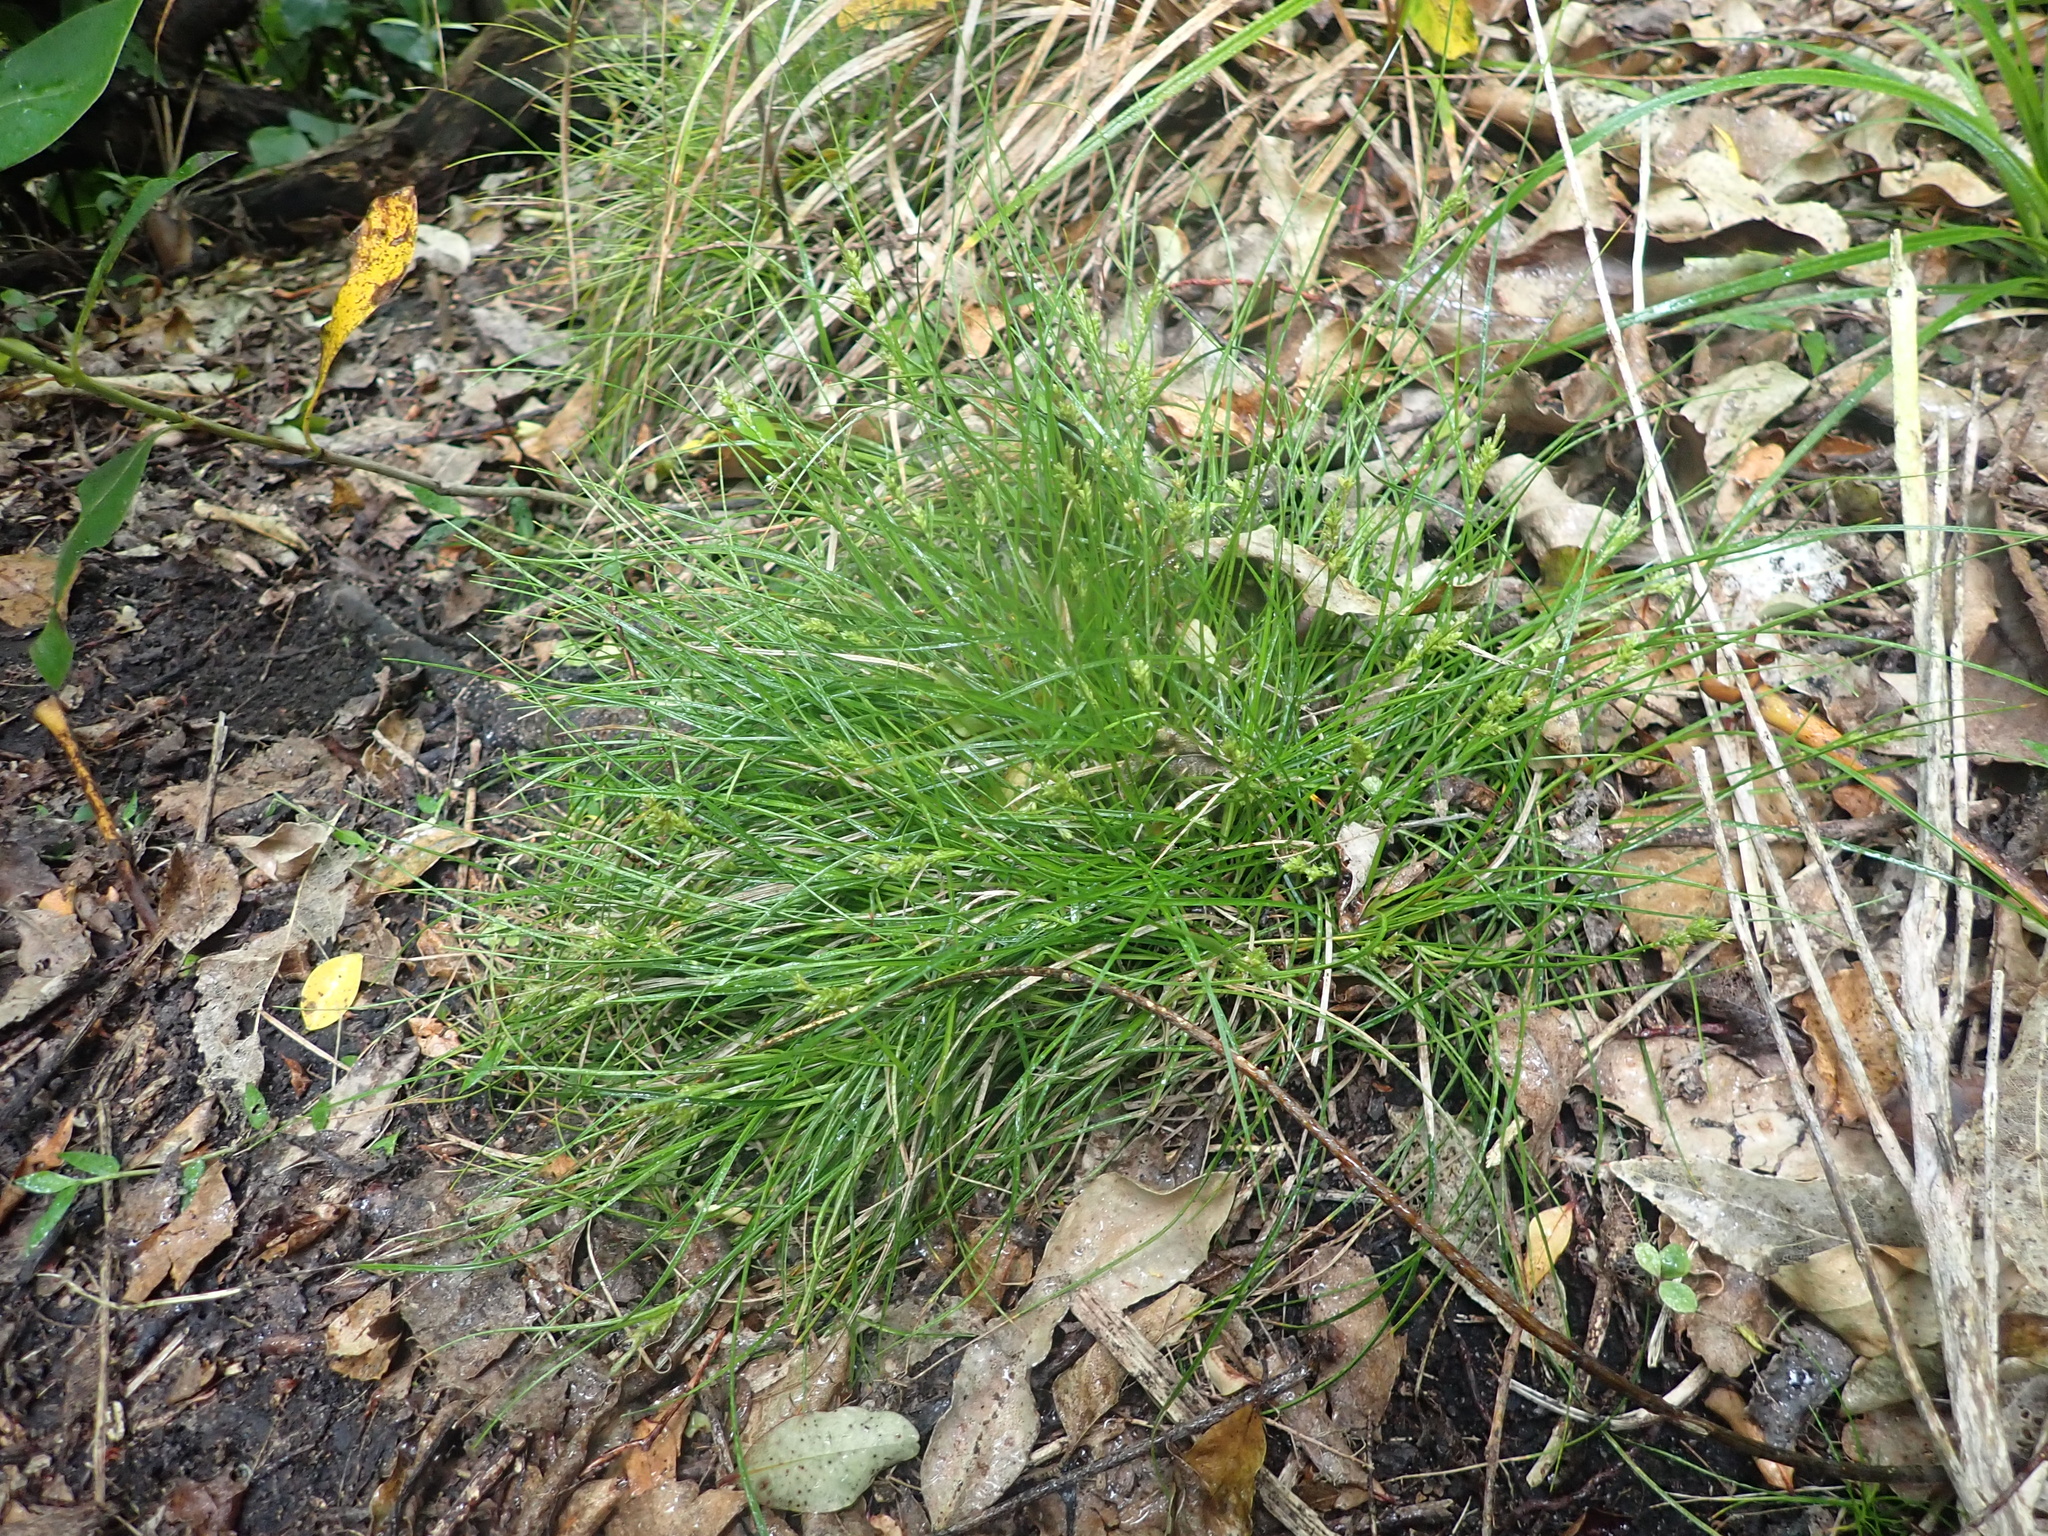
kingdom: Plantae
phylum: Tracheophyta
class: Liliopsida
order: Poales
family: Cyperaceae
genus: Carex
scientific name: Carex inversa
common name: Knob sedge
